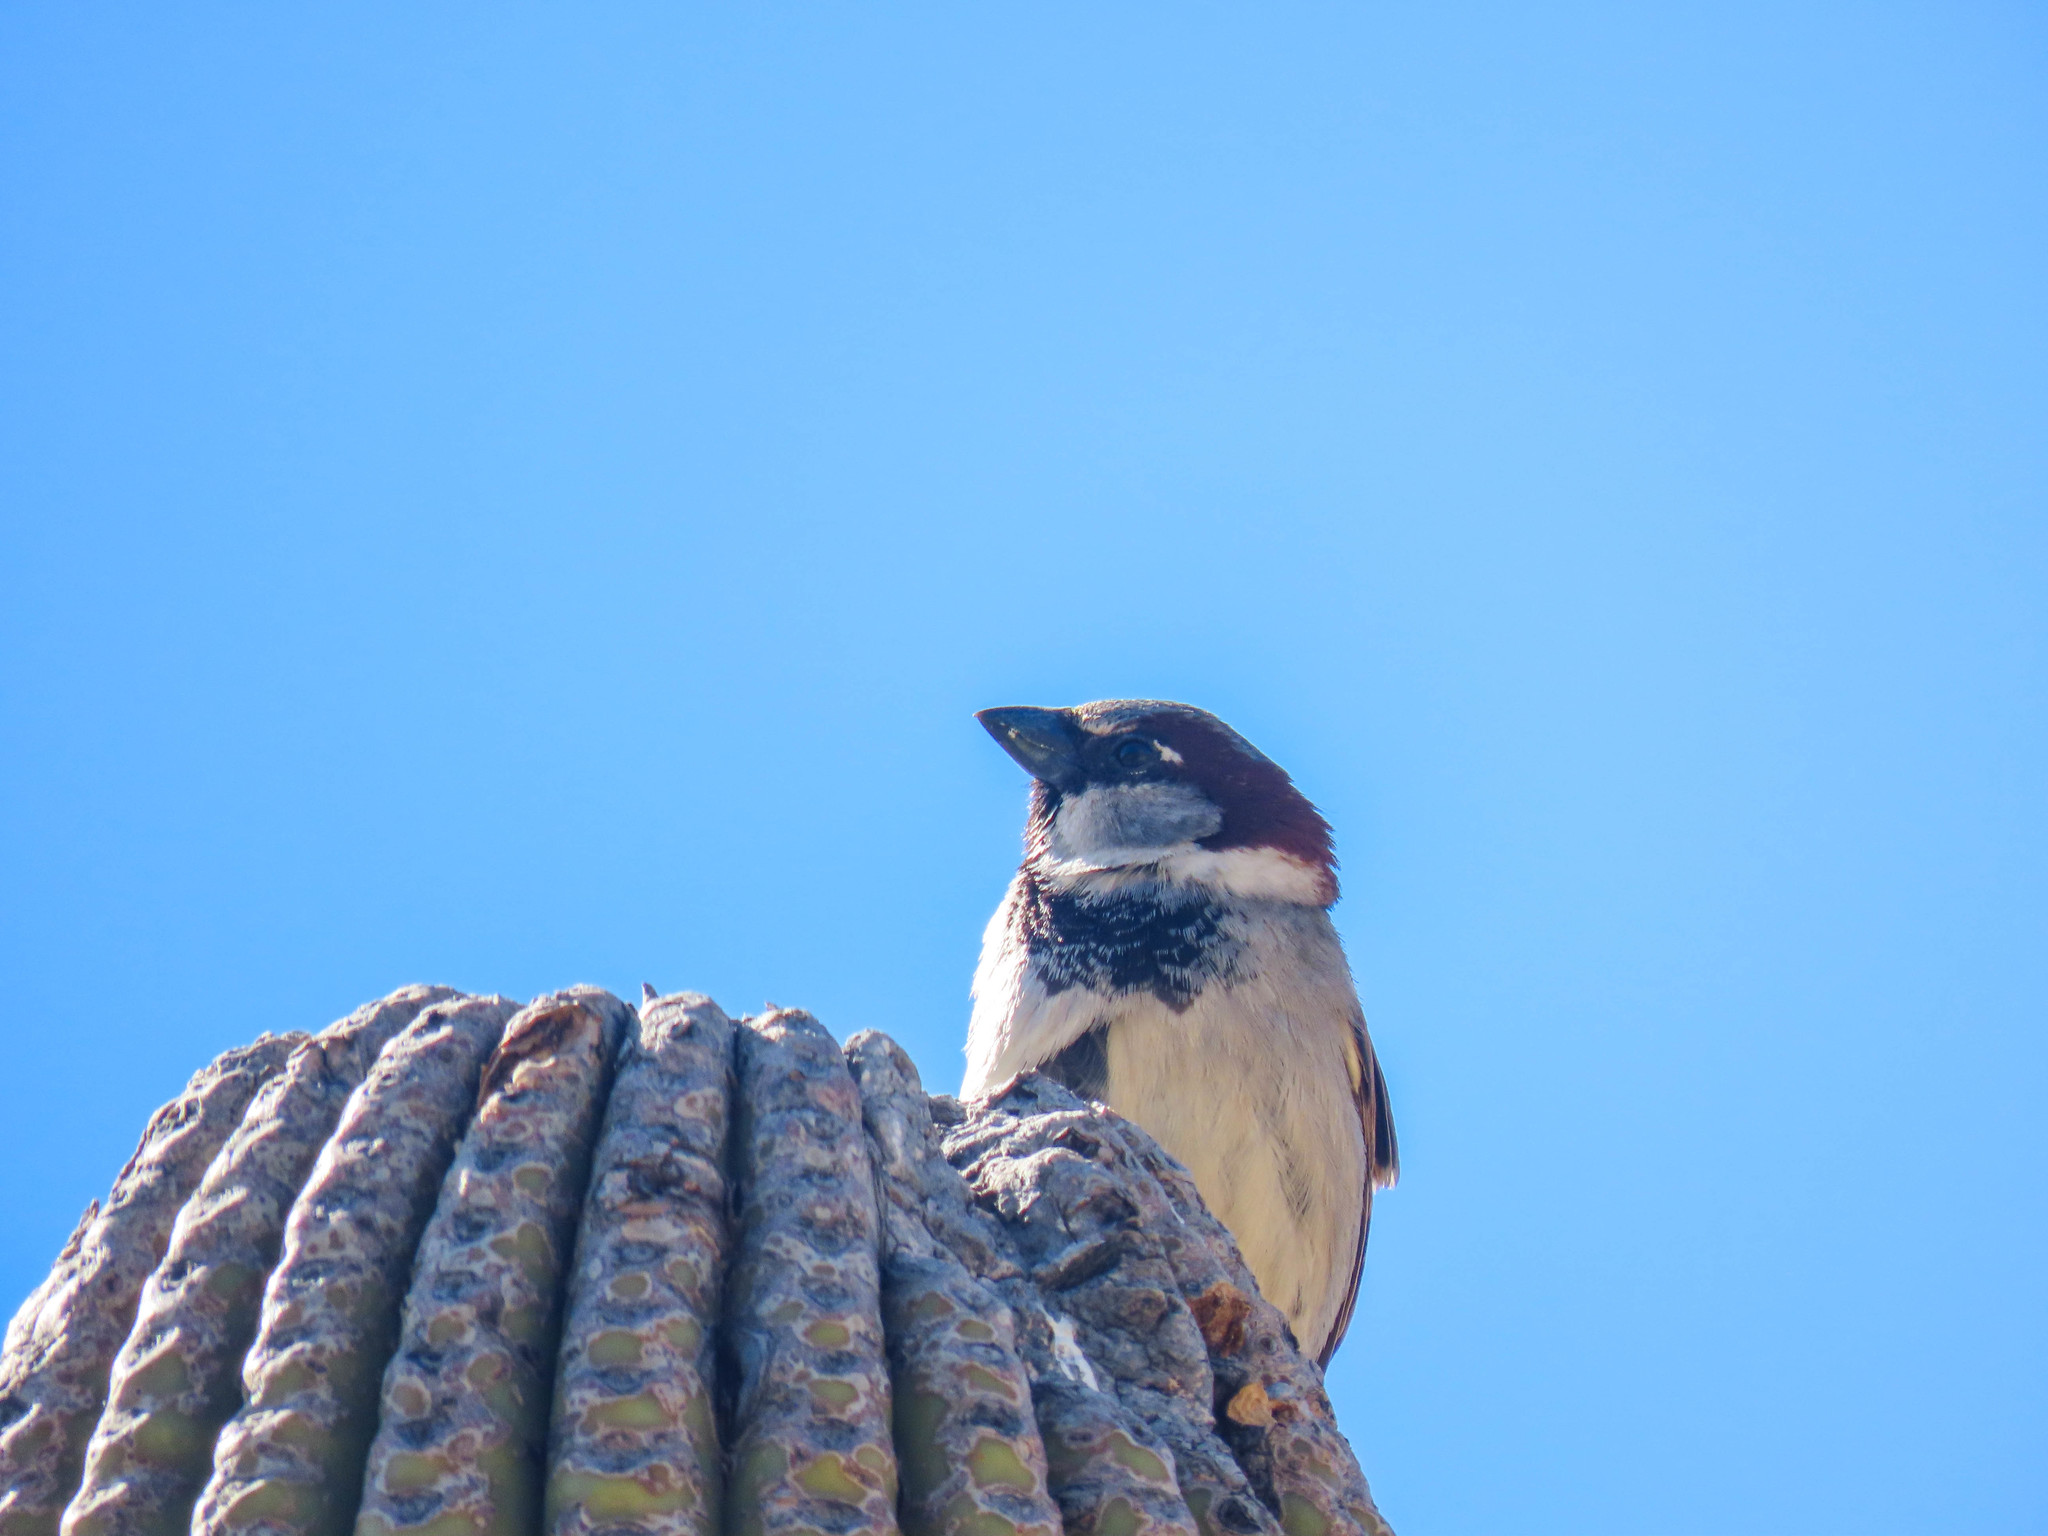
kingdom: Animalia
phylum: Chordata
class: Aves
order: Passeriformes
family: Passeridae
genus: Passer
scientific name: Passer domesticus
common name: House sparrow
